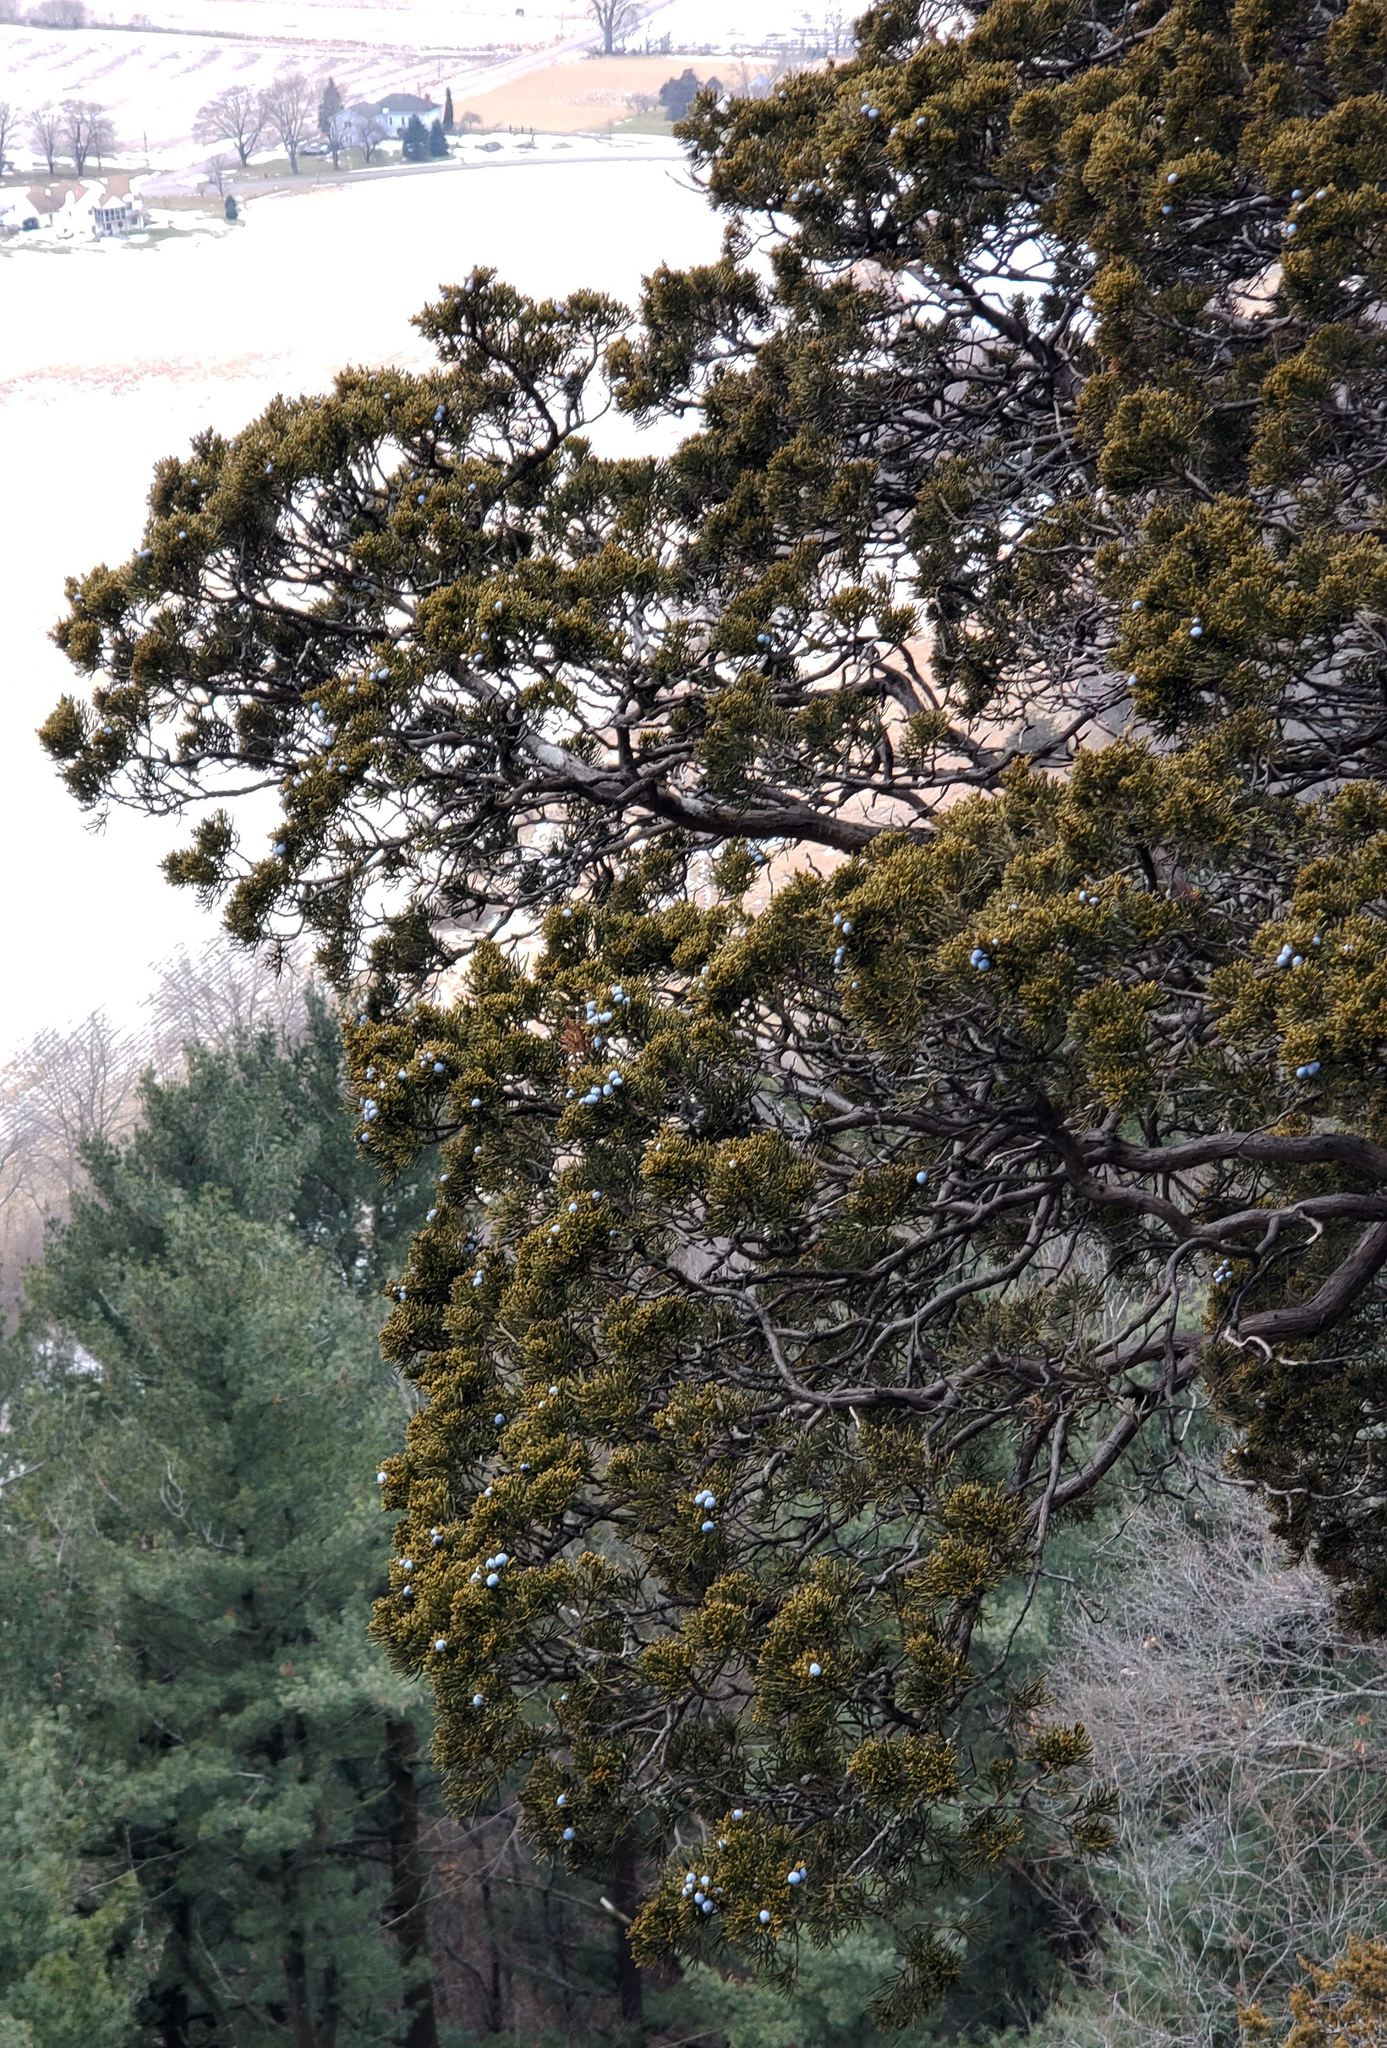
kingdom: Plantae
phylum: Tracheophyta
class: Pinopsida
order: Pinales
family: Cupressaceae
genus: Juniperus
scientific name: Juniperus virginiana
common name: Red juniper
